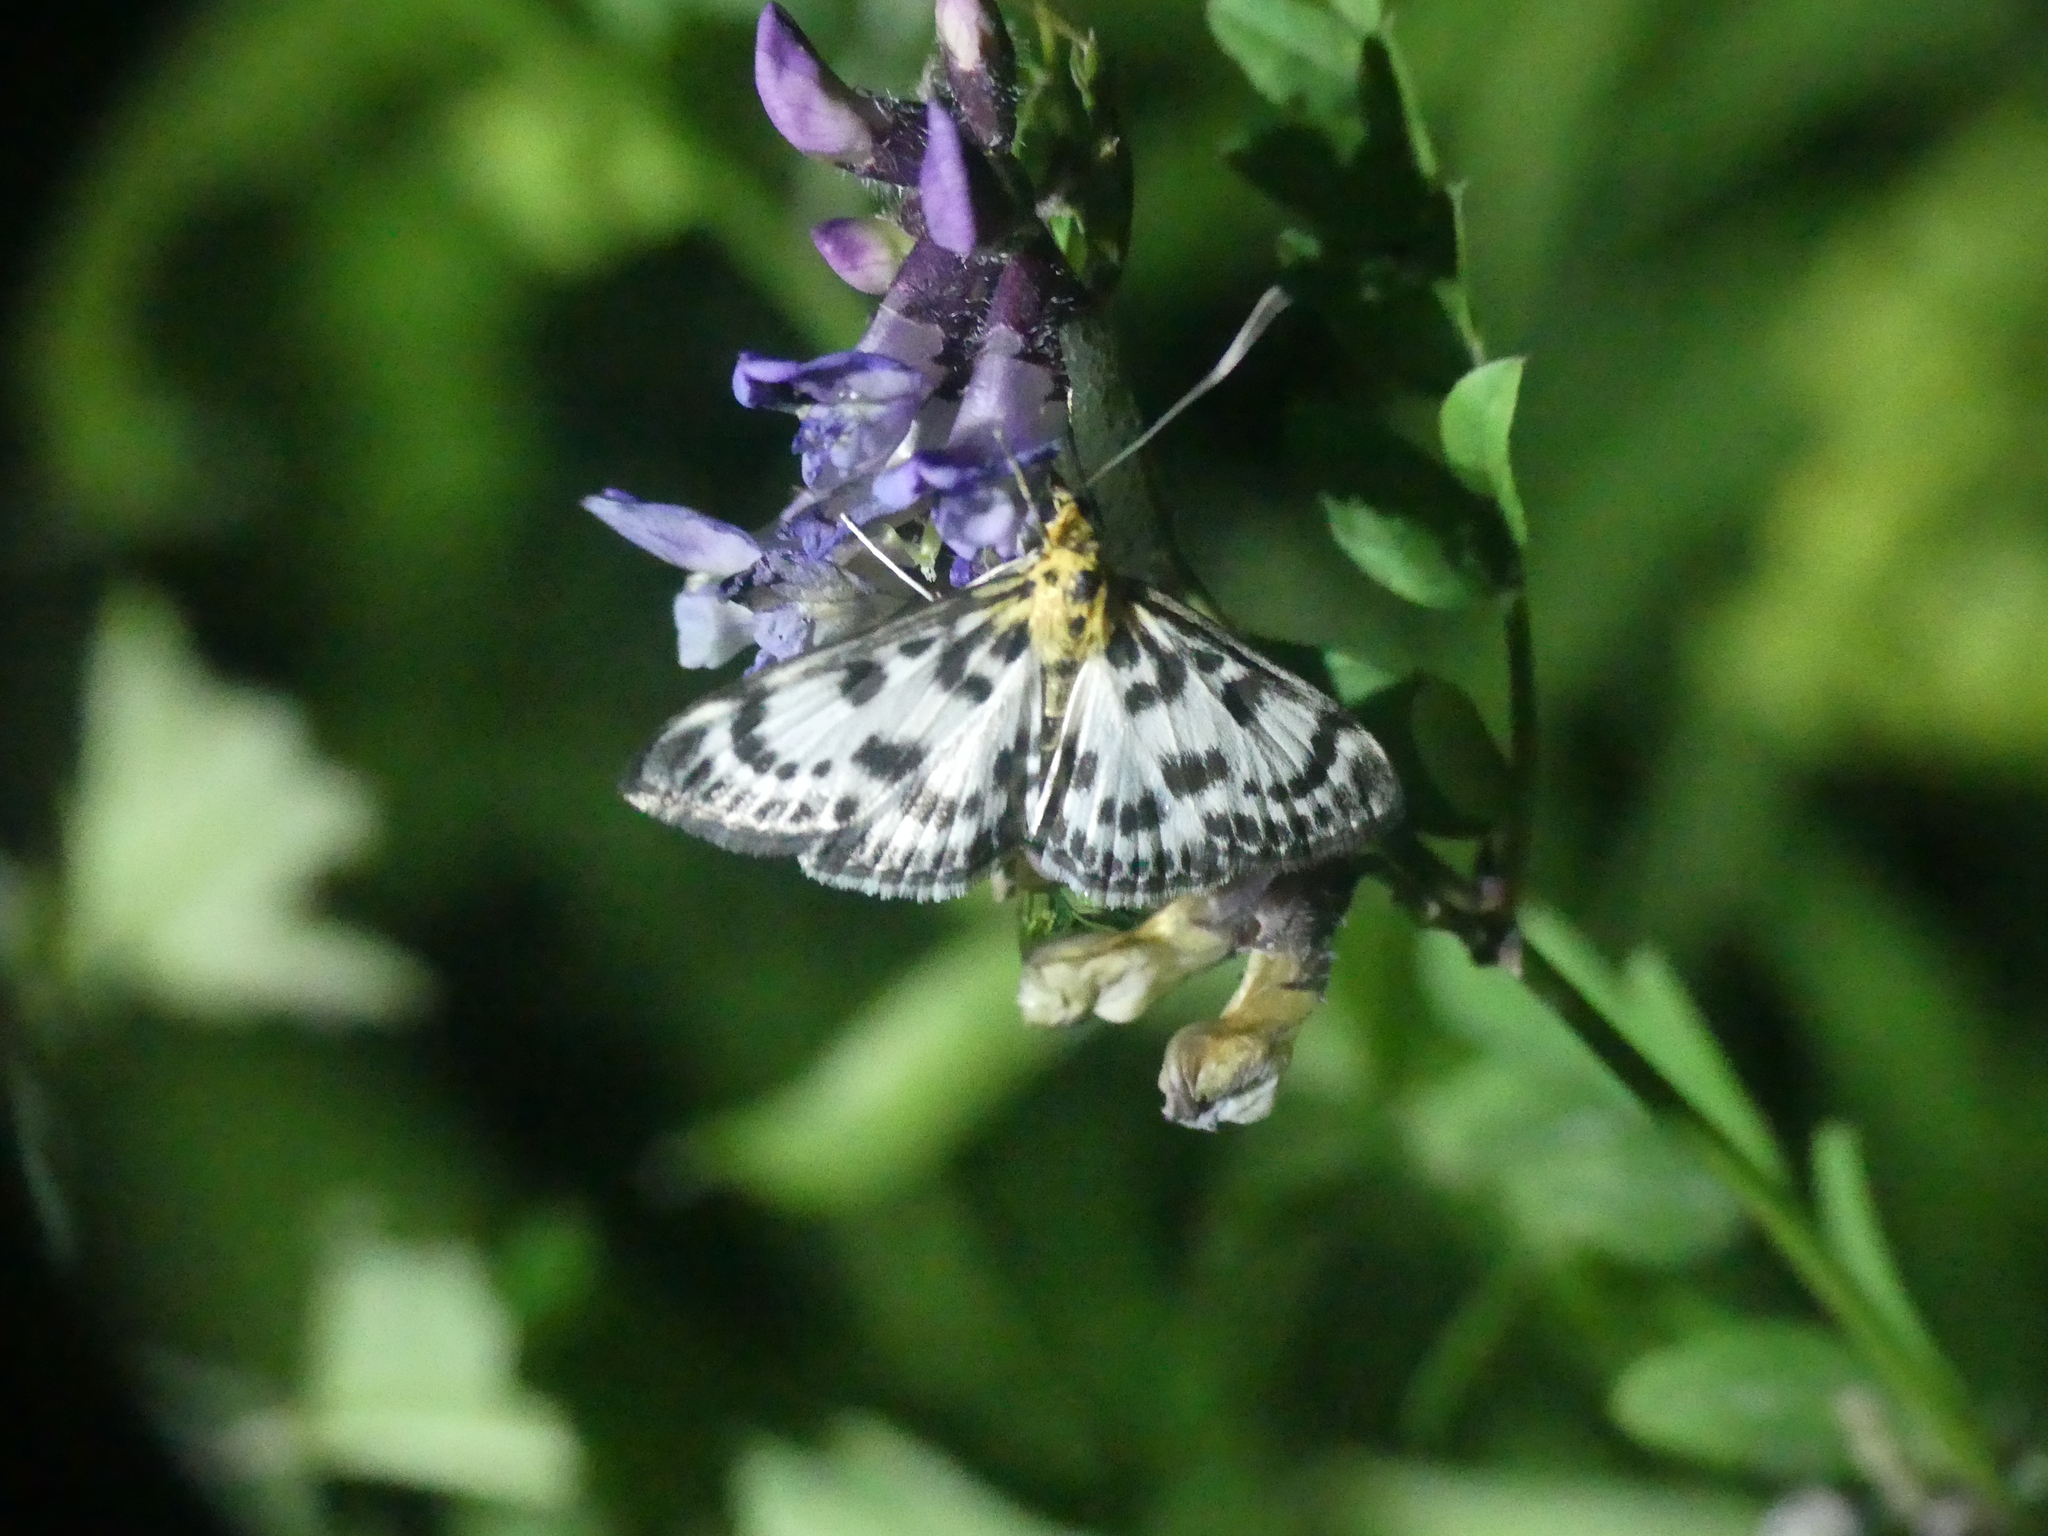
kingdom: Animalia
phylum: Arthropoda
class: Insecta
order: Lepidoptera
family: Crambidae
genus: Anania
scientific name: Anania hortulata
